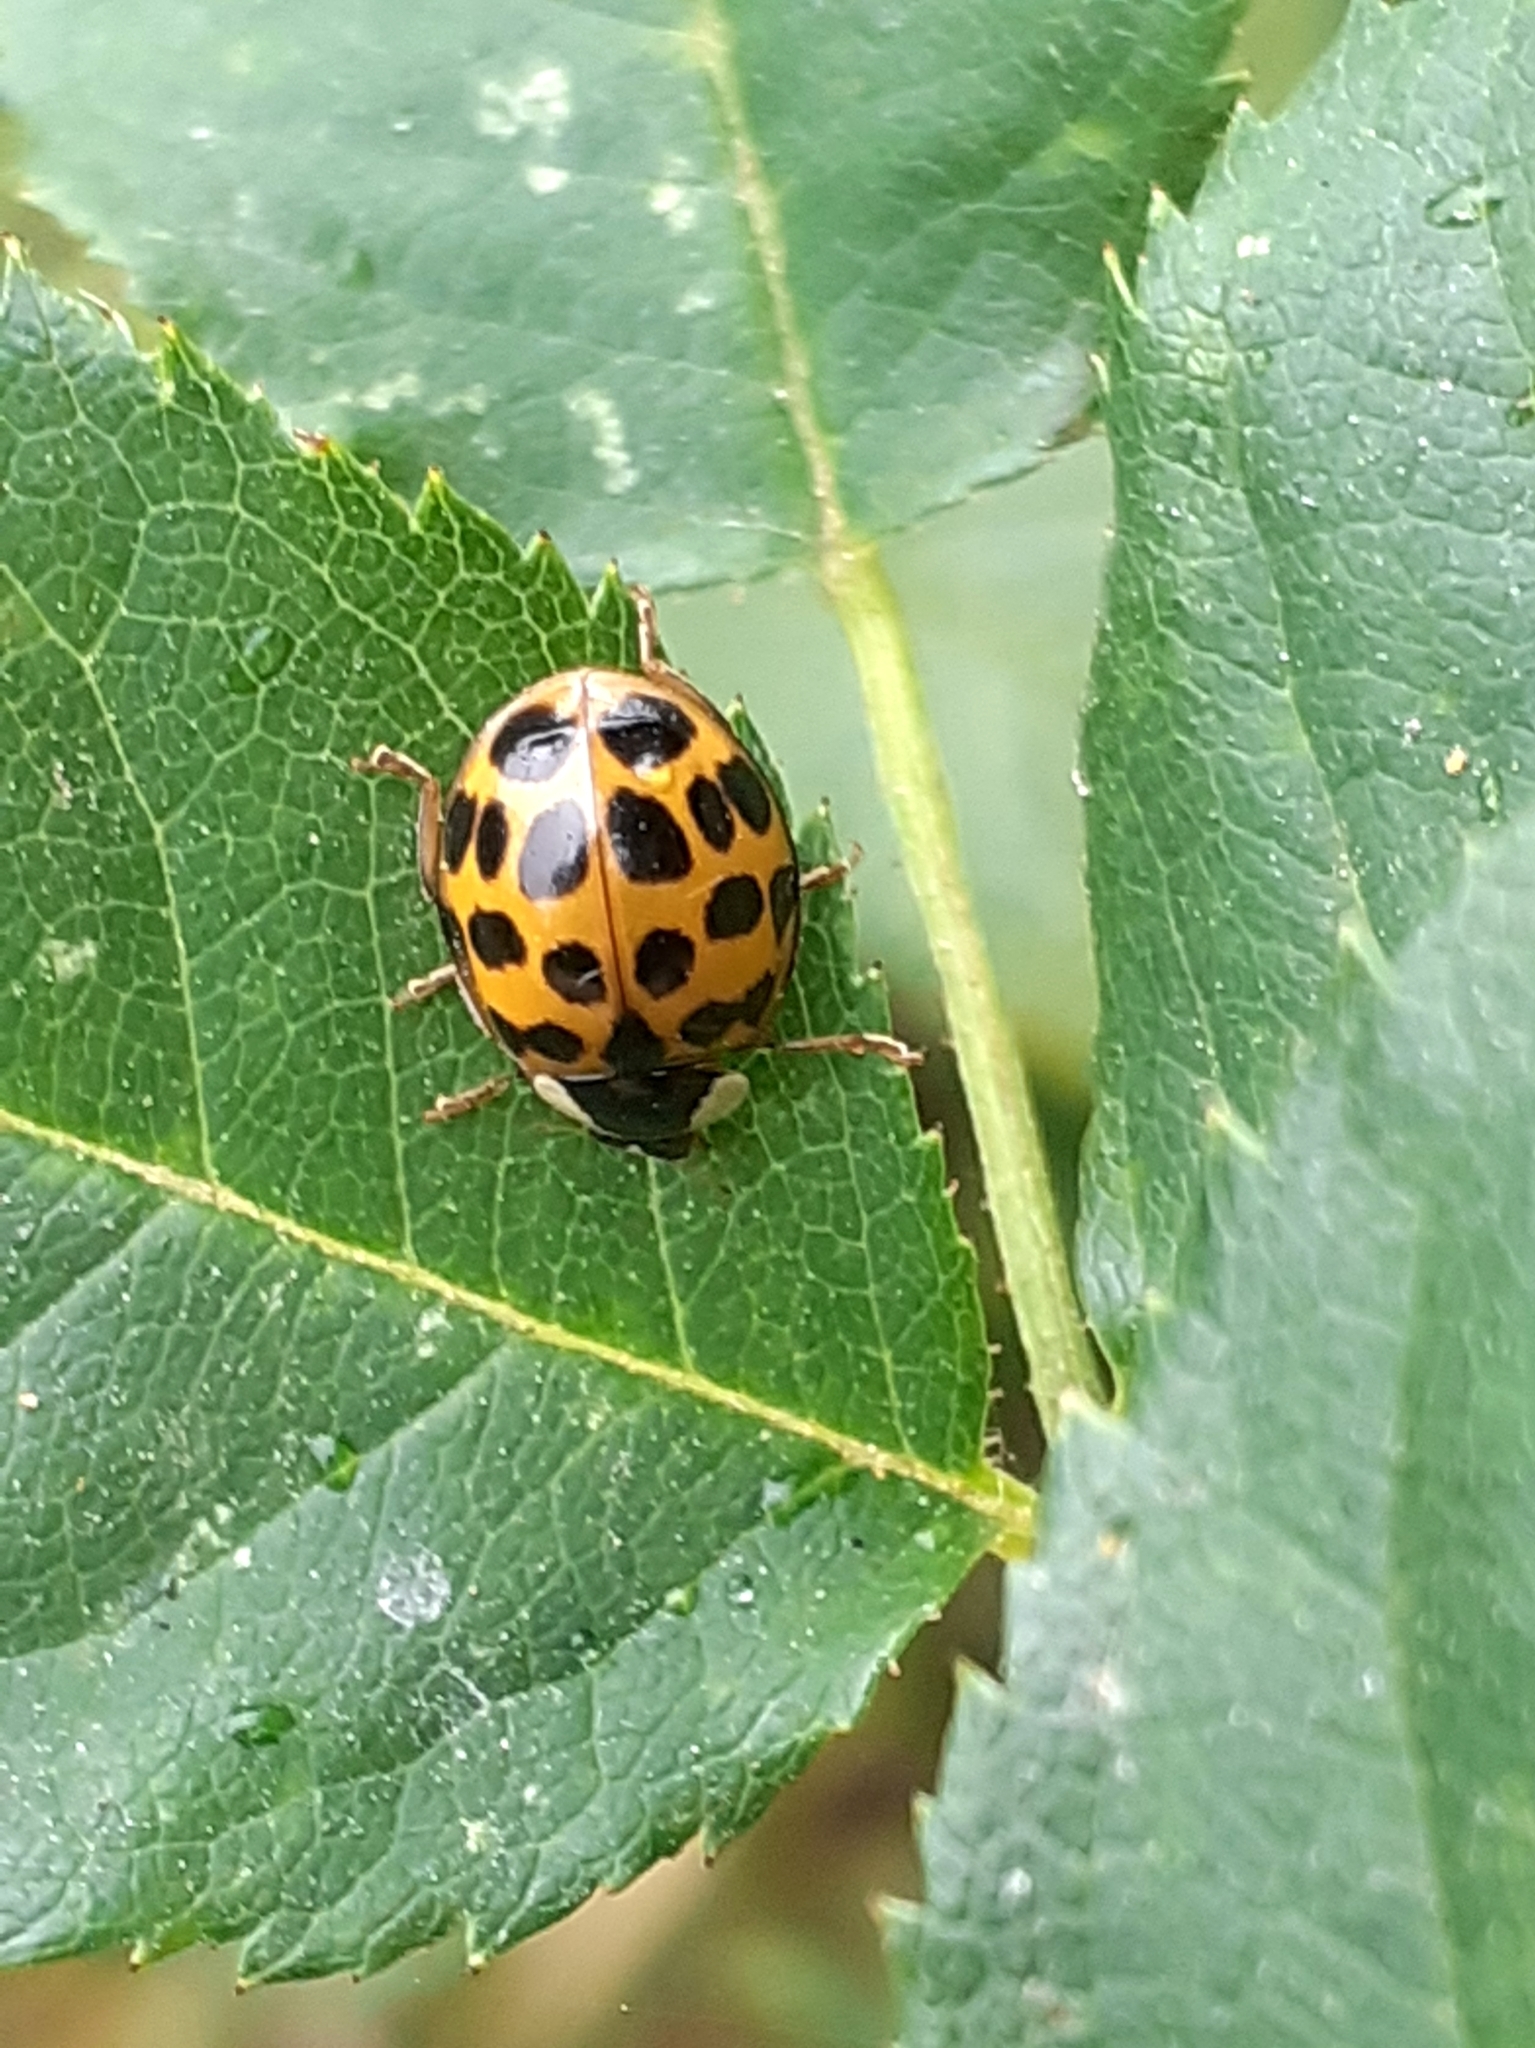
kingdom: Animalia
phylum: Arthropoda
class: Insecta
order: Coleoptera
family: Coccinellidae
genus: Harmonia
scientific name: Harmonia axyridis
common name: Harlequin ladybird
